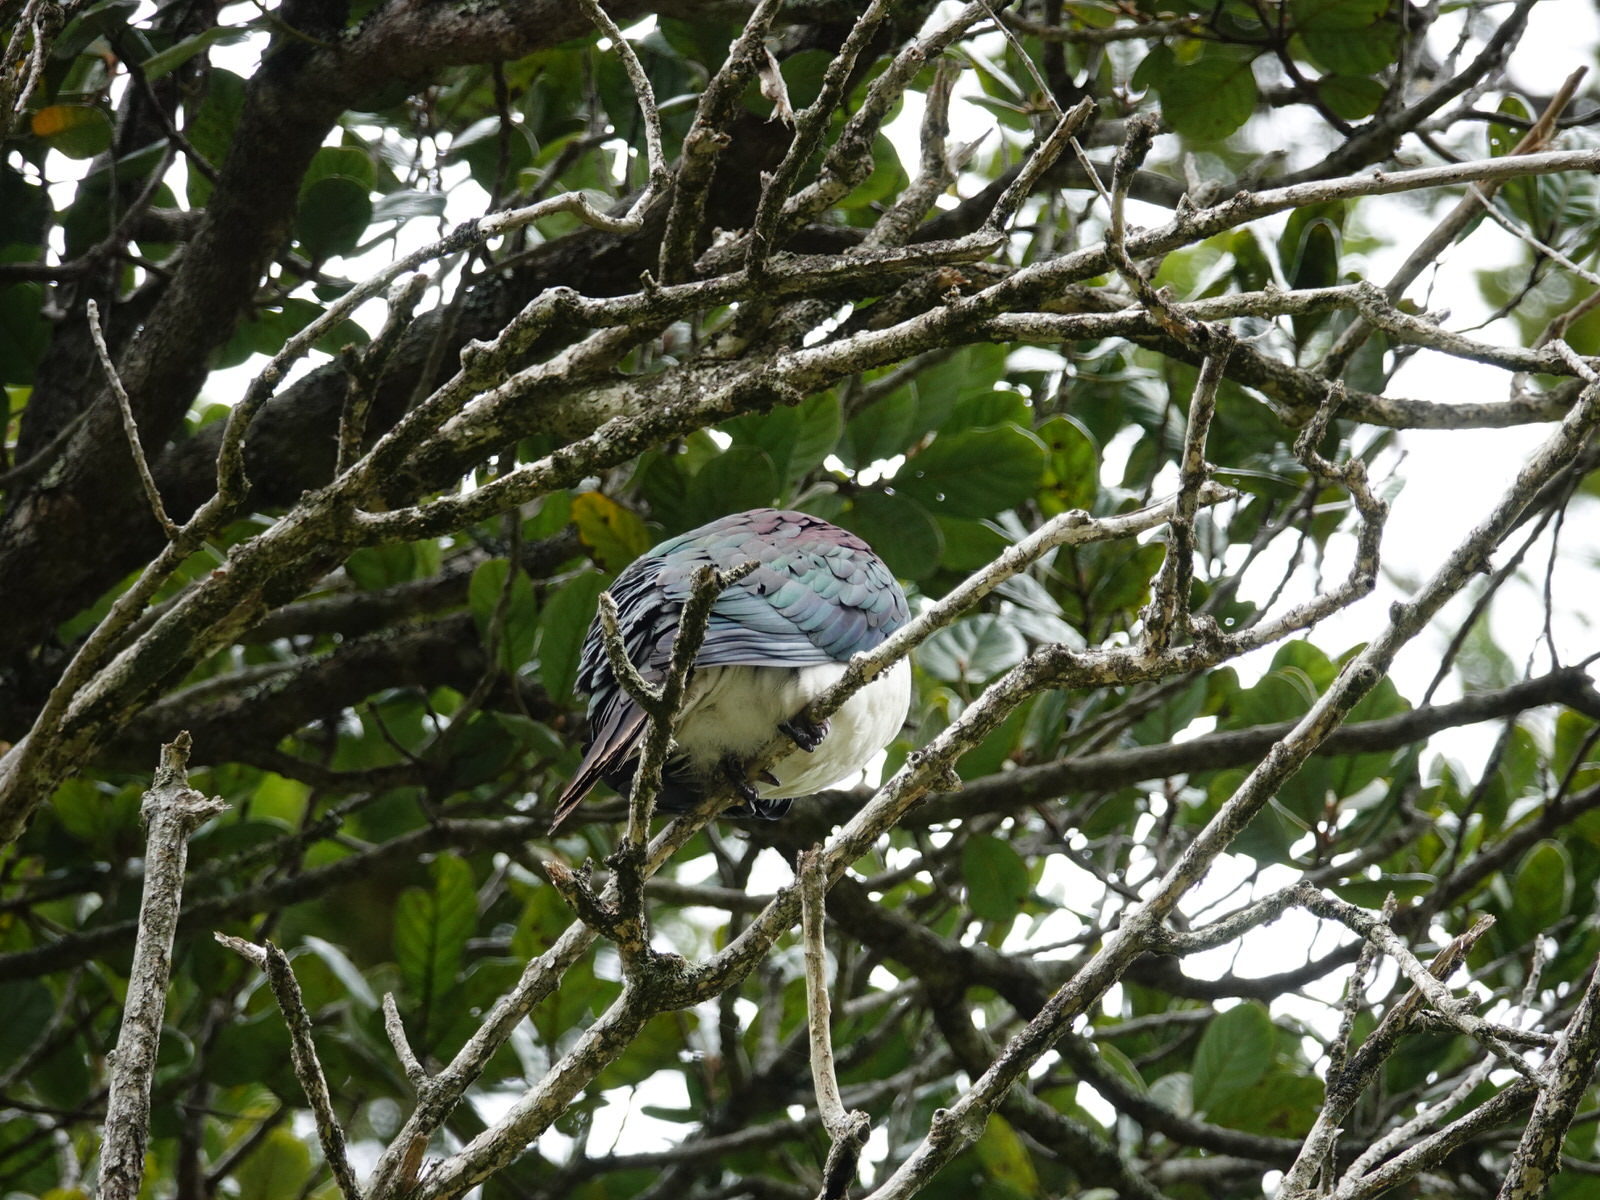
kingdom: Animalia
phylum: Chordata
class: Aves
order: Columbiformes
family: Columbidae
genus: Hemiphaga
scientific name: Hemiphaga novaeseelandiae
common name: New zealand pigeon
